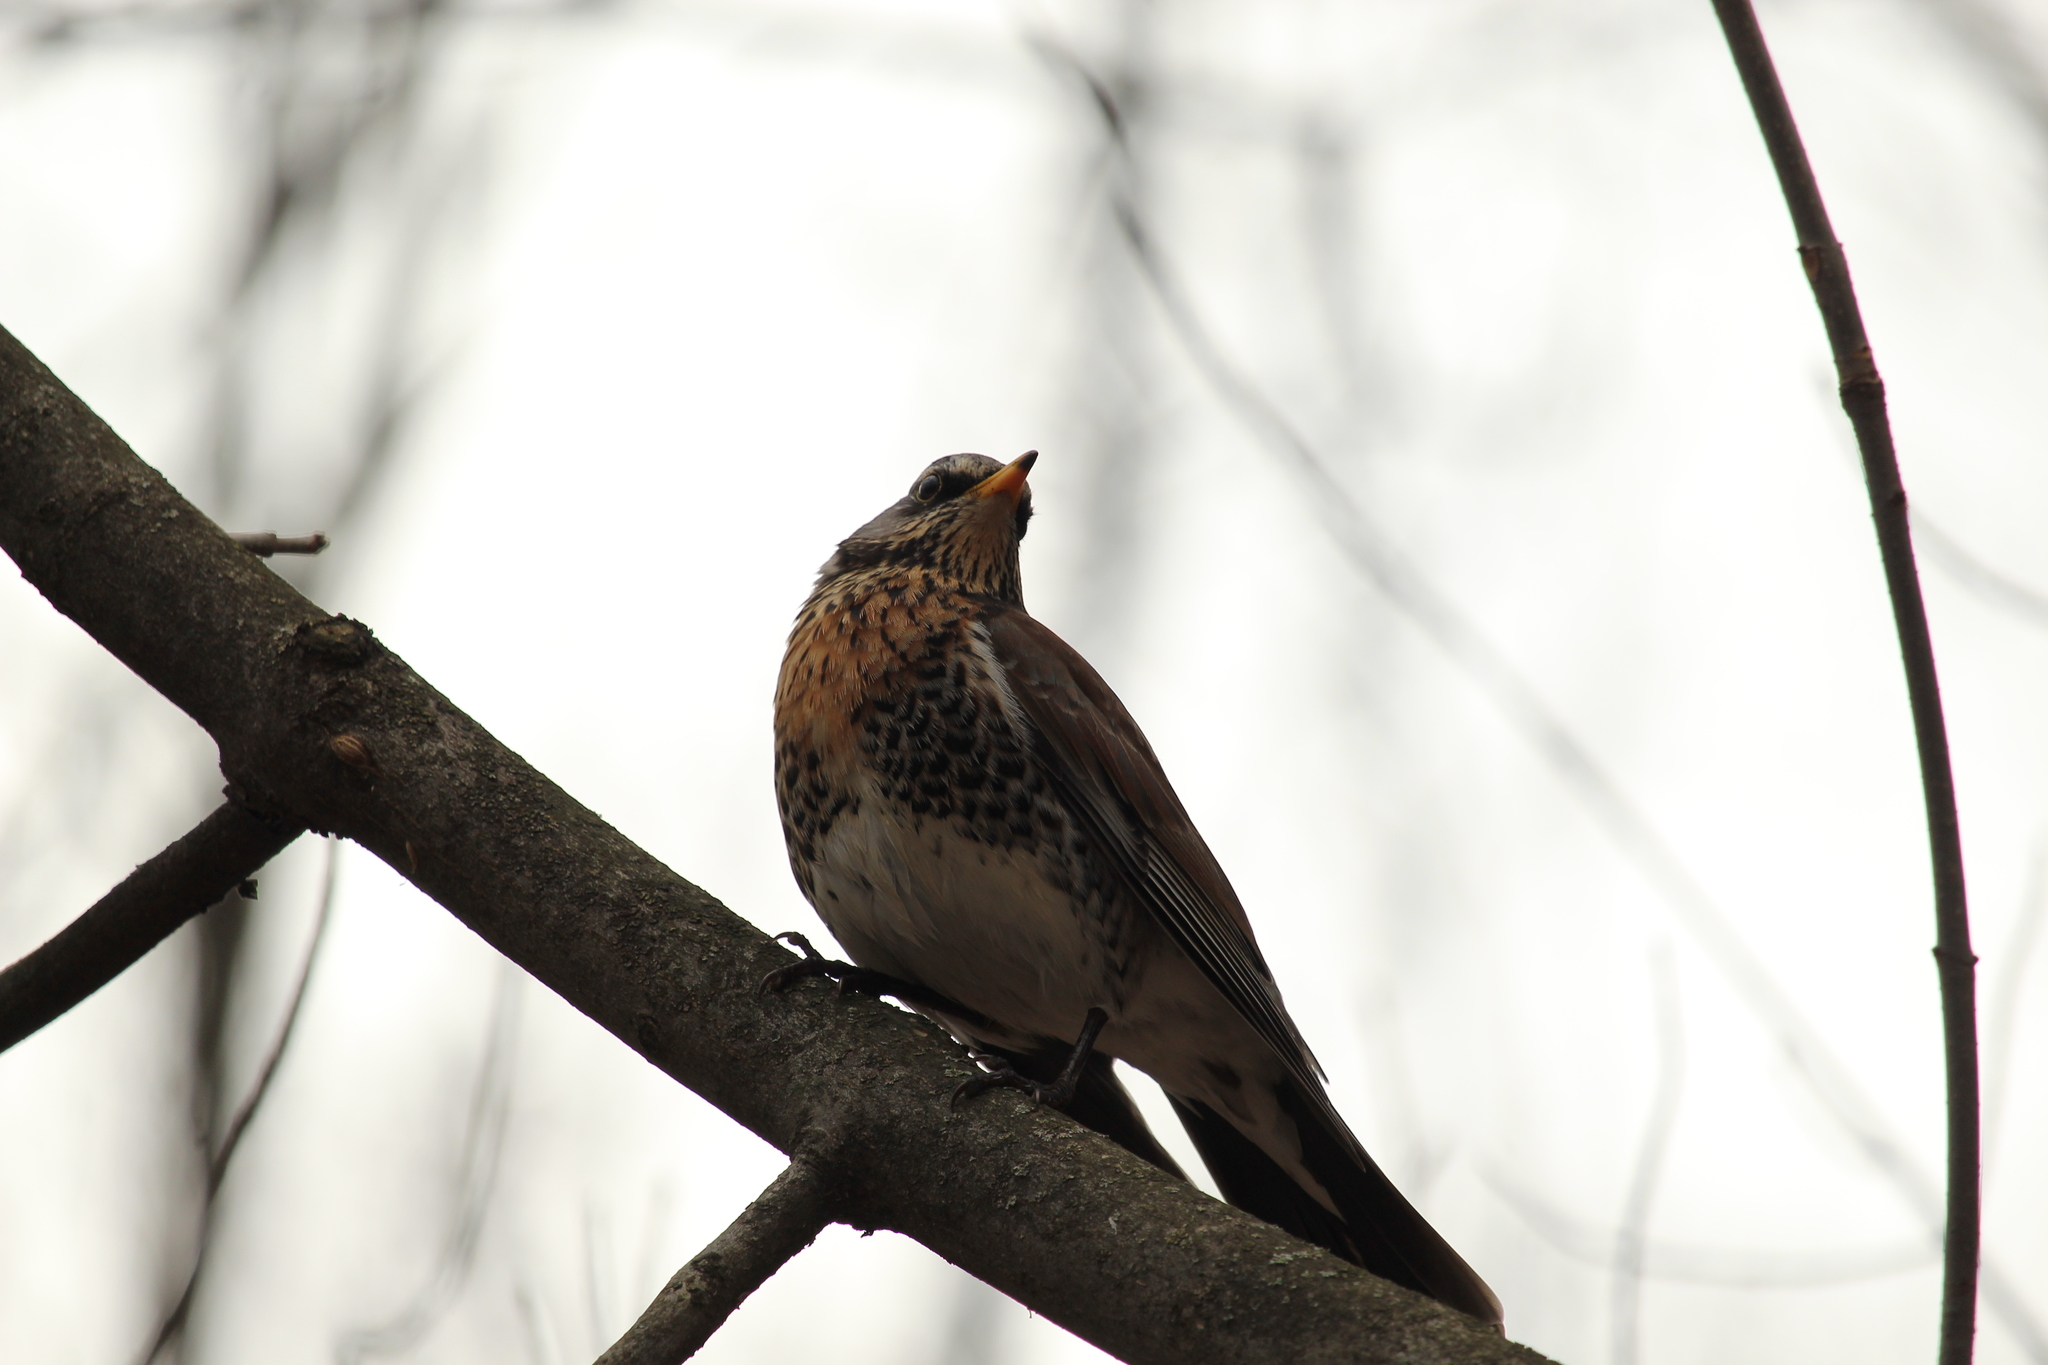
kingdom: Animalia
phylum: Chordata
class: Aves
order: Passeriformes
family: Turdidae
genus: Turdus
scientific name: Turdus pilaris
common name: Fieldfare
